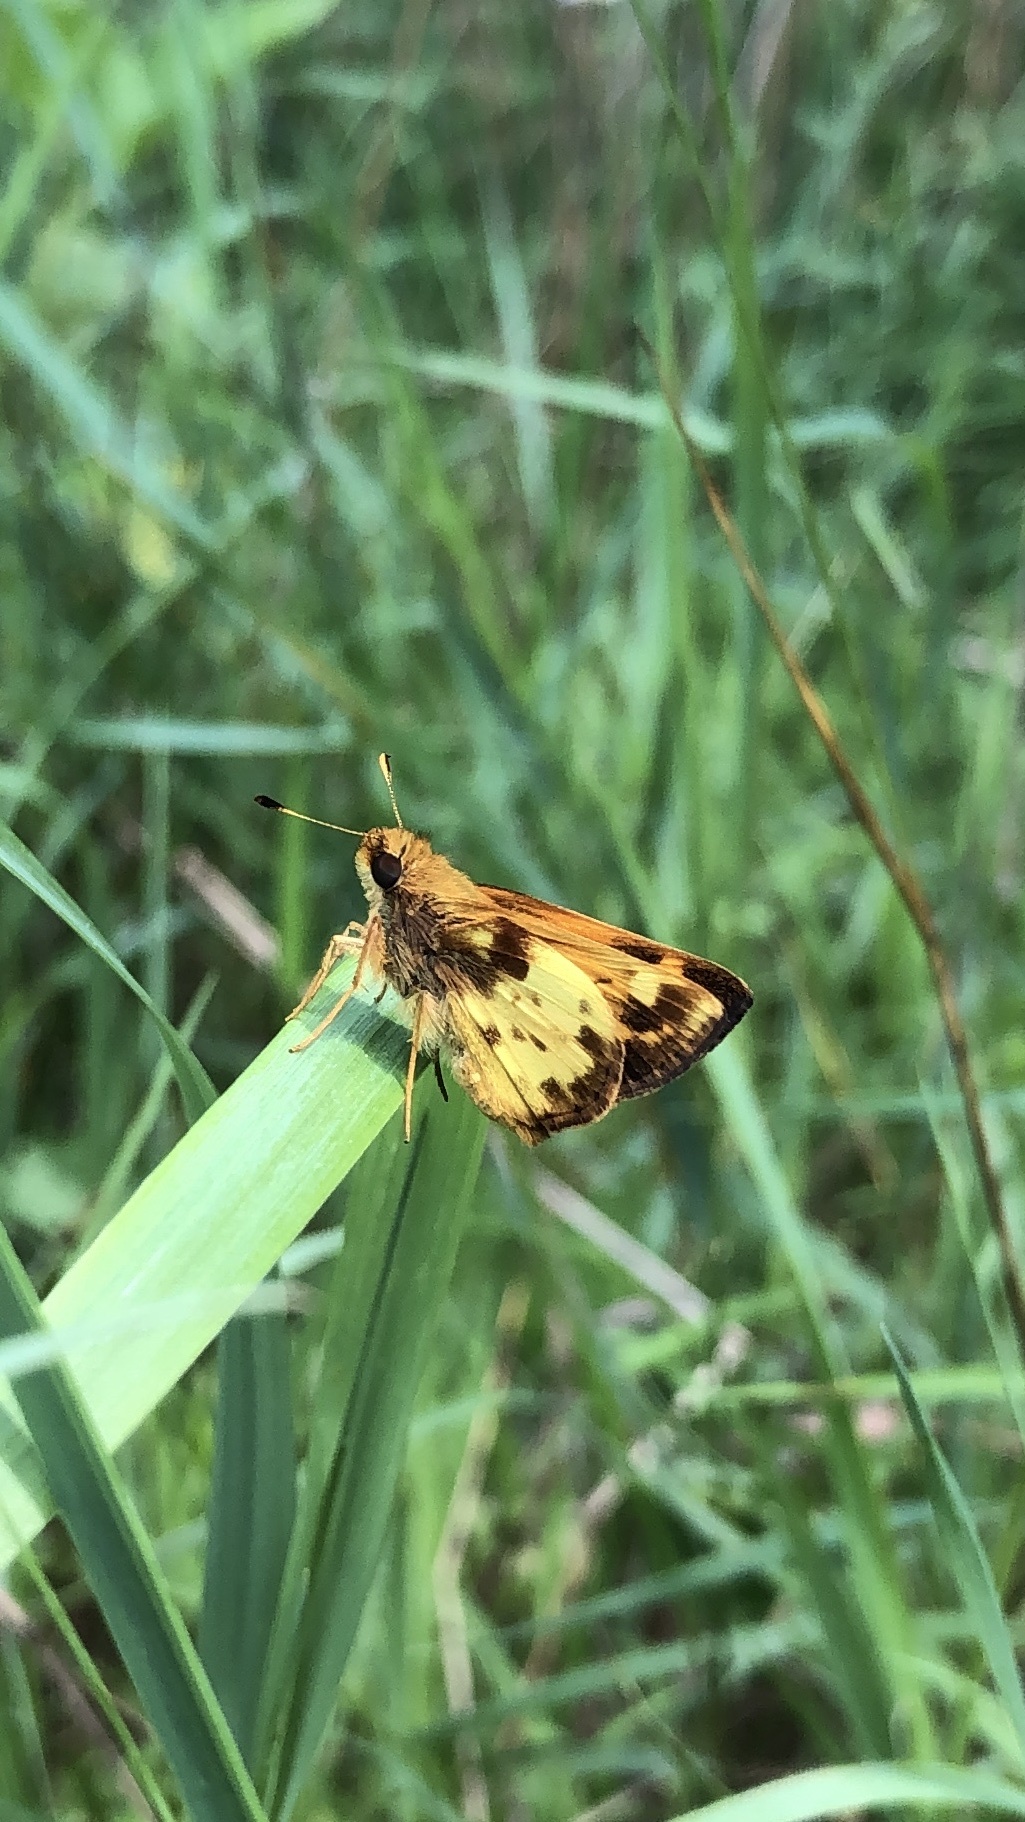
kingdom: Animalia
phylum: Arthropoda
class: Insecta
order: Lepidoptera
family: Hesperiidae
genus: Lon
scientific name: Lon zabulon
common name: Zabulon skipper
